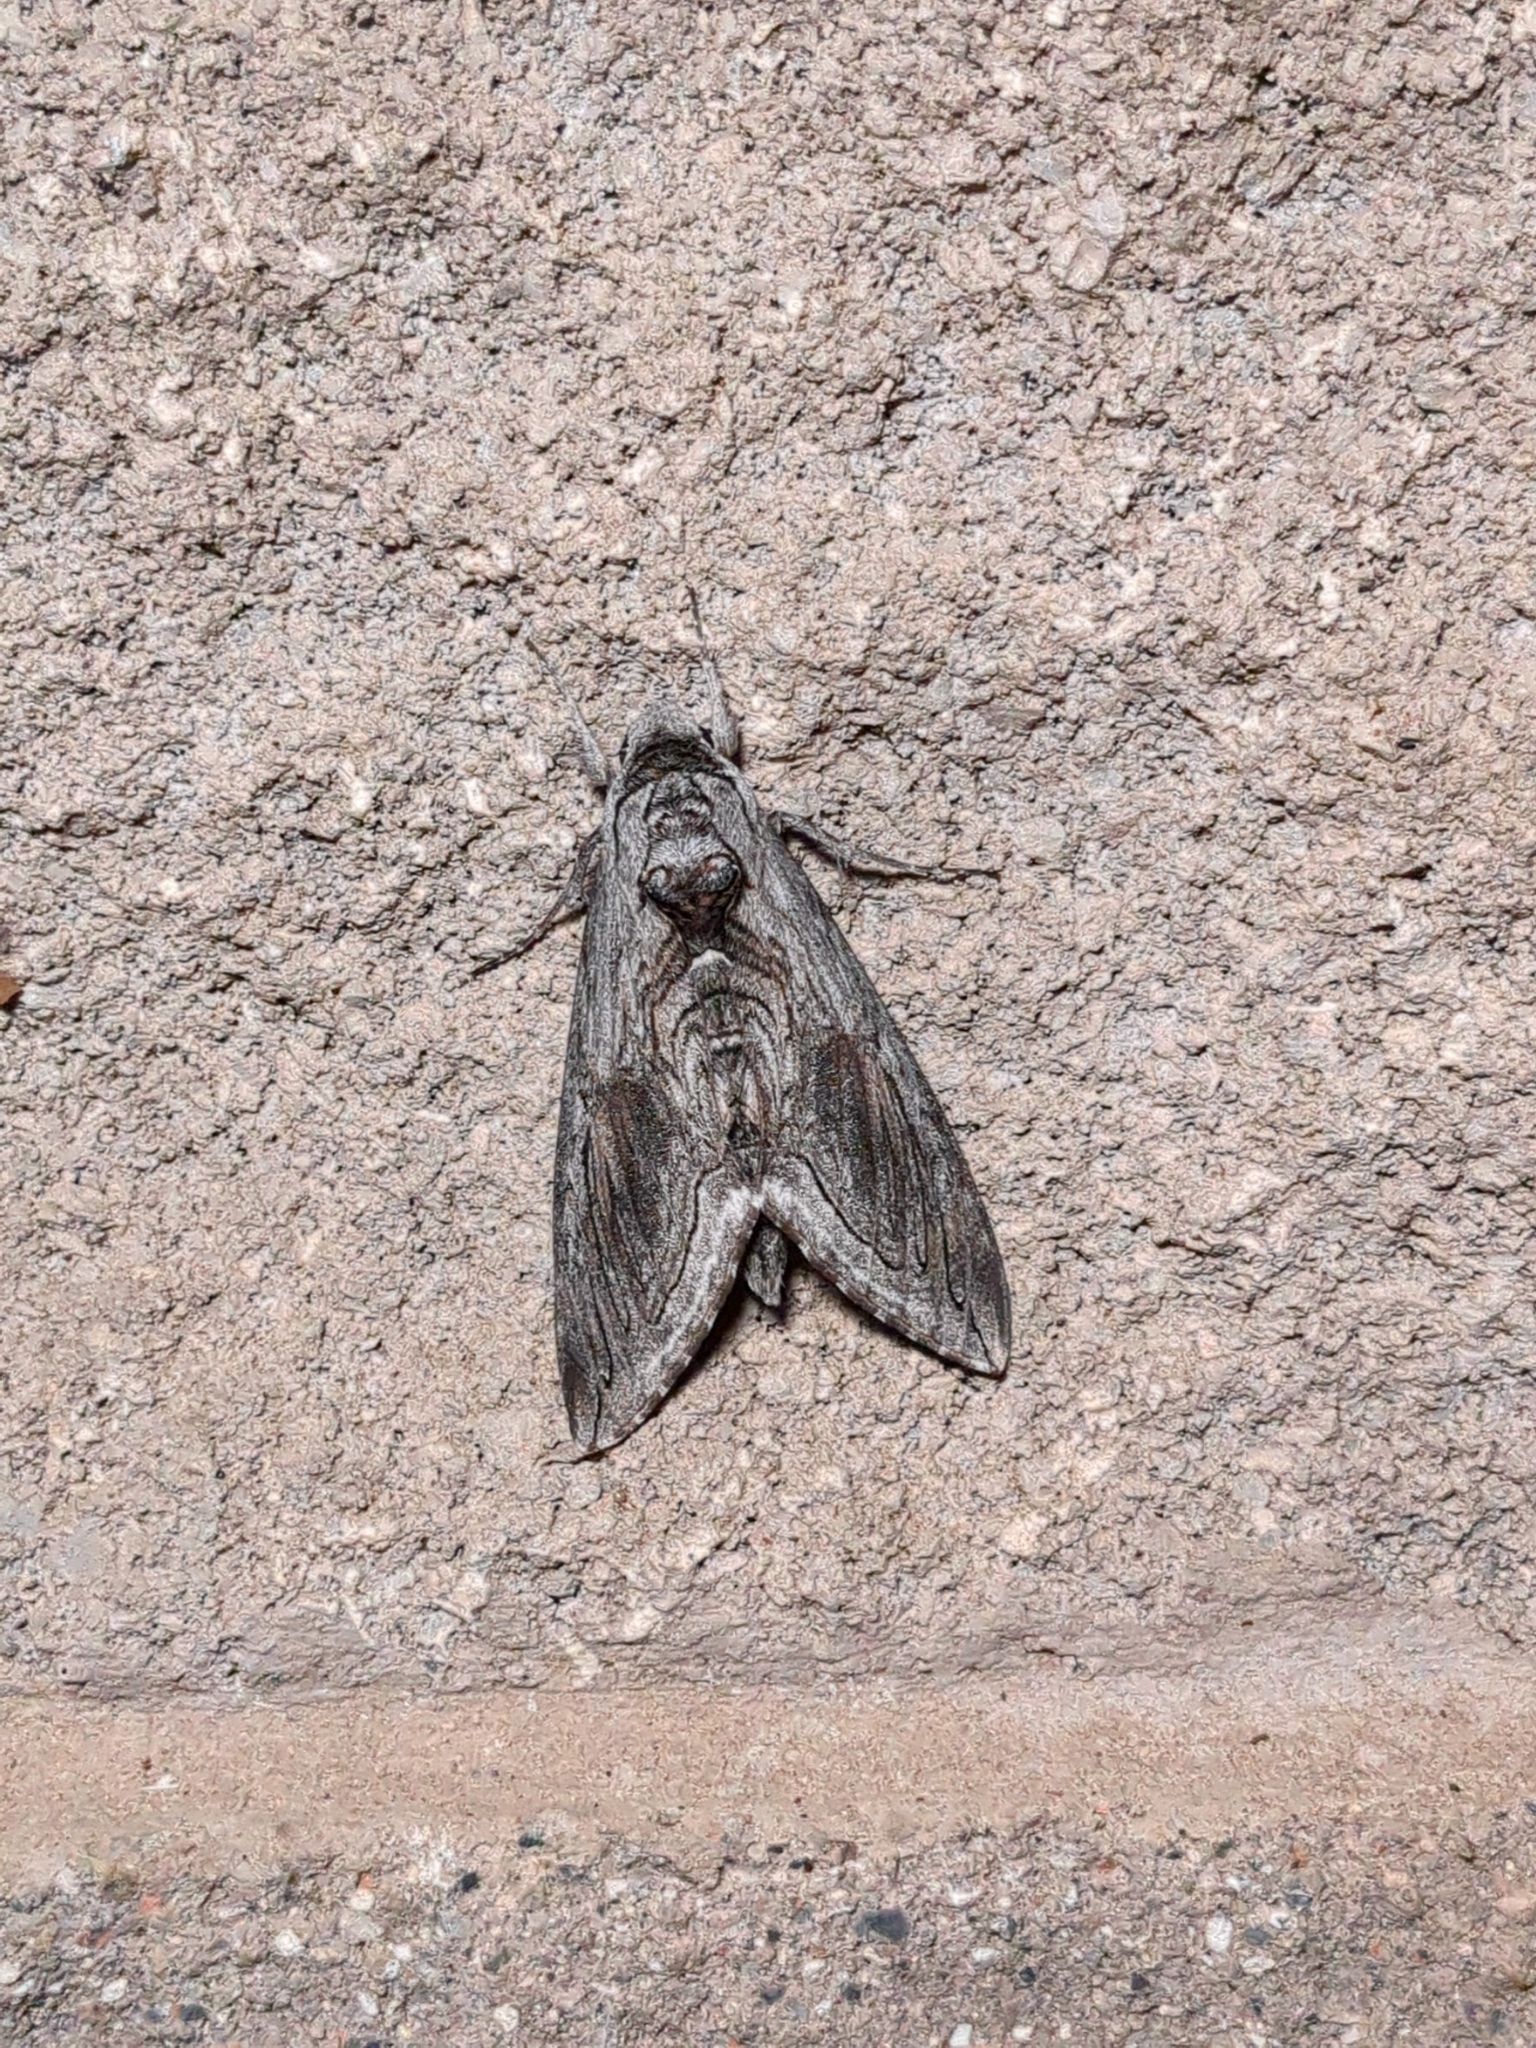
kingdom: Animalia
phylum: Arthropoda
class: Insecta
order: Lepidoptera
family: Sphingidae
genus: Manduca
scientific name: Manduca quinquemaculatus
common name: Five-spotted hawk-moth
